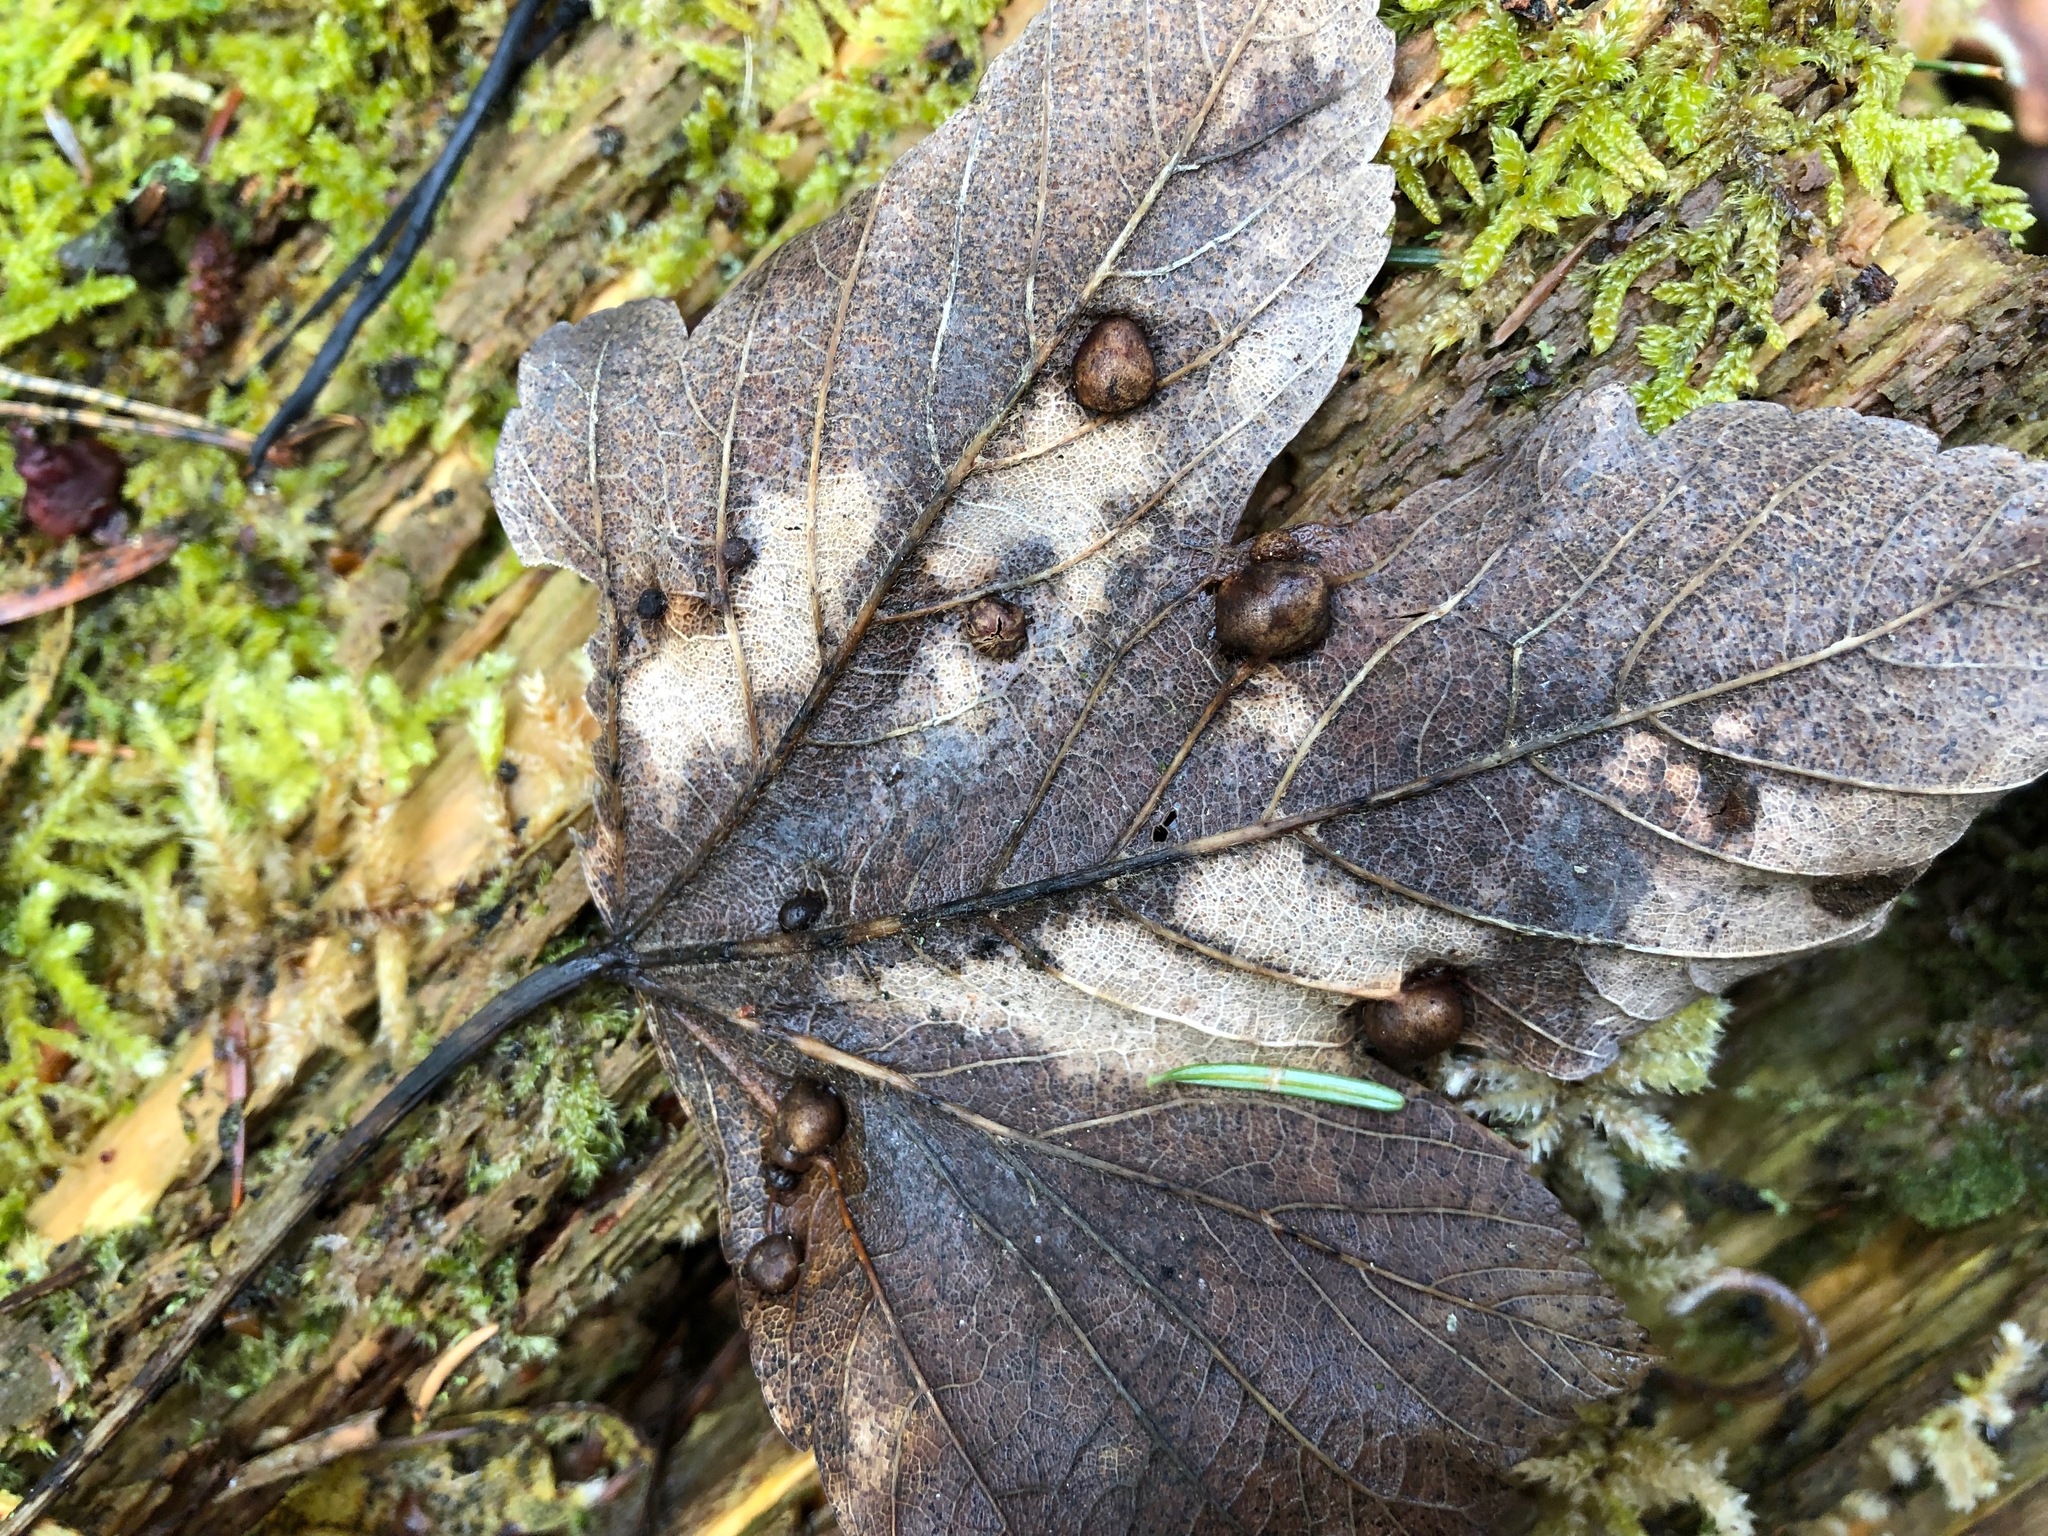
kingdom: Animalia
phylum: Arthropoda
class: Insecta
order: Hymenoptera
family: Cynipidae
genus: Pediaspis
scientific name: Pediaspis aceris
